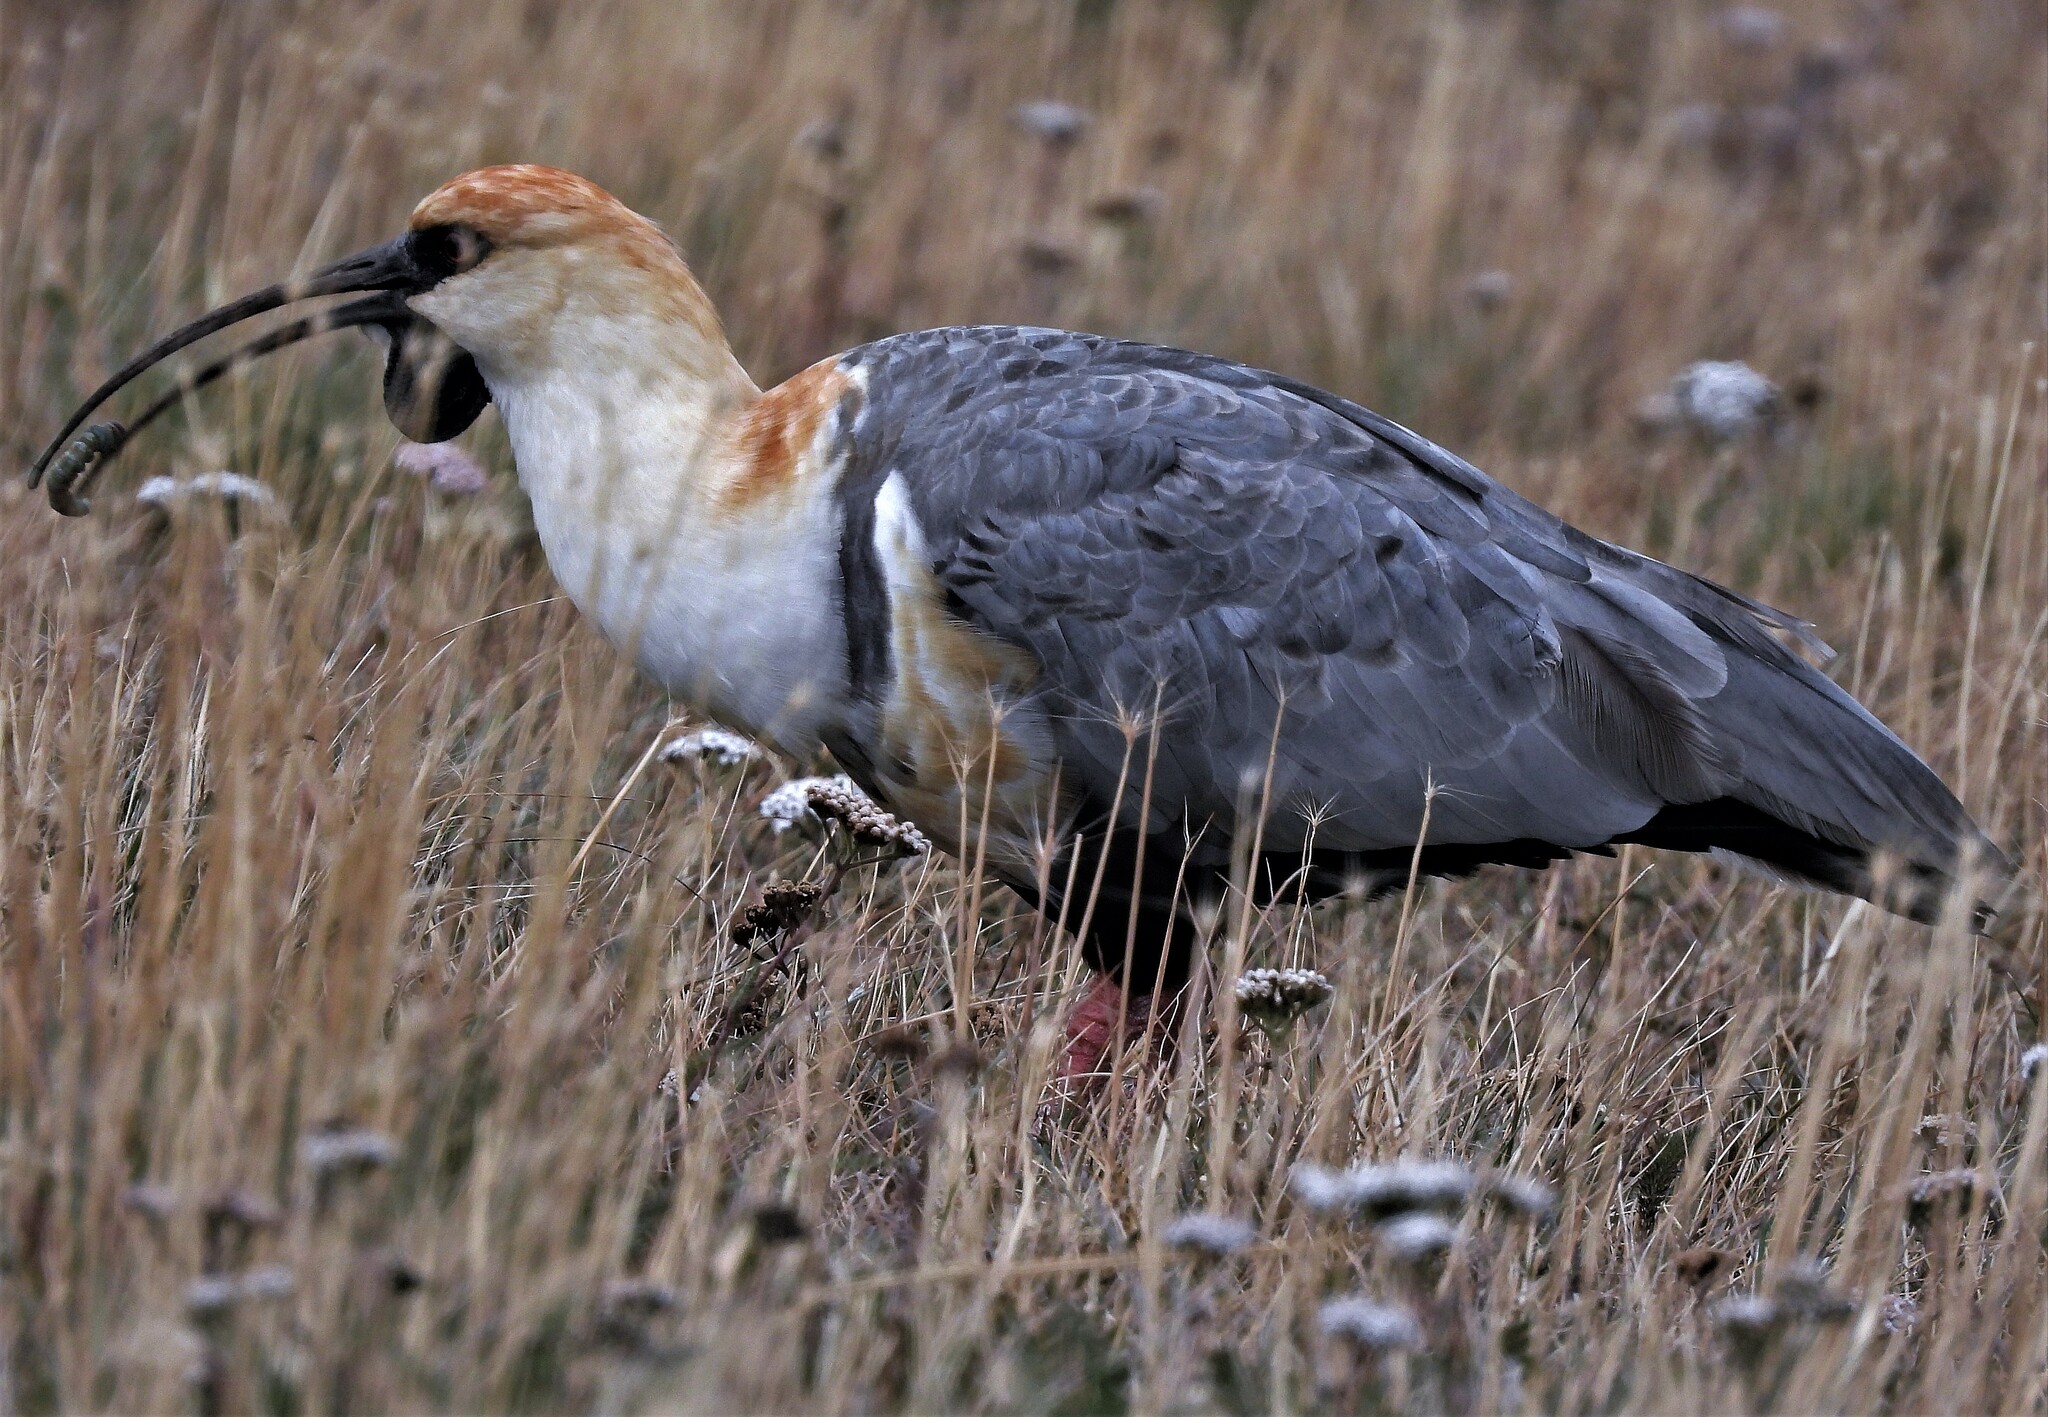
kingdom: Animalia
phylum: Chordata
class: Aves
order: Pelecaniformes
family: Threskiornithidae
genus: Theristicus
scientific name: Theristicus melanopis
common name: Black-faced ibis
